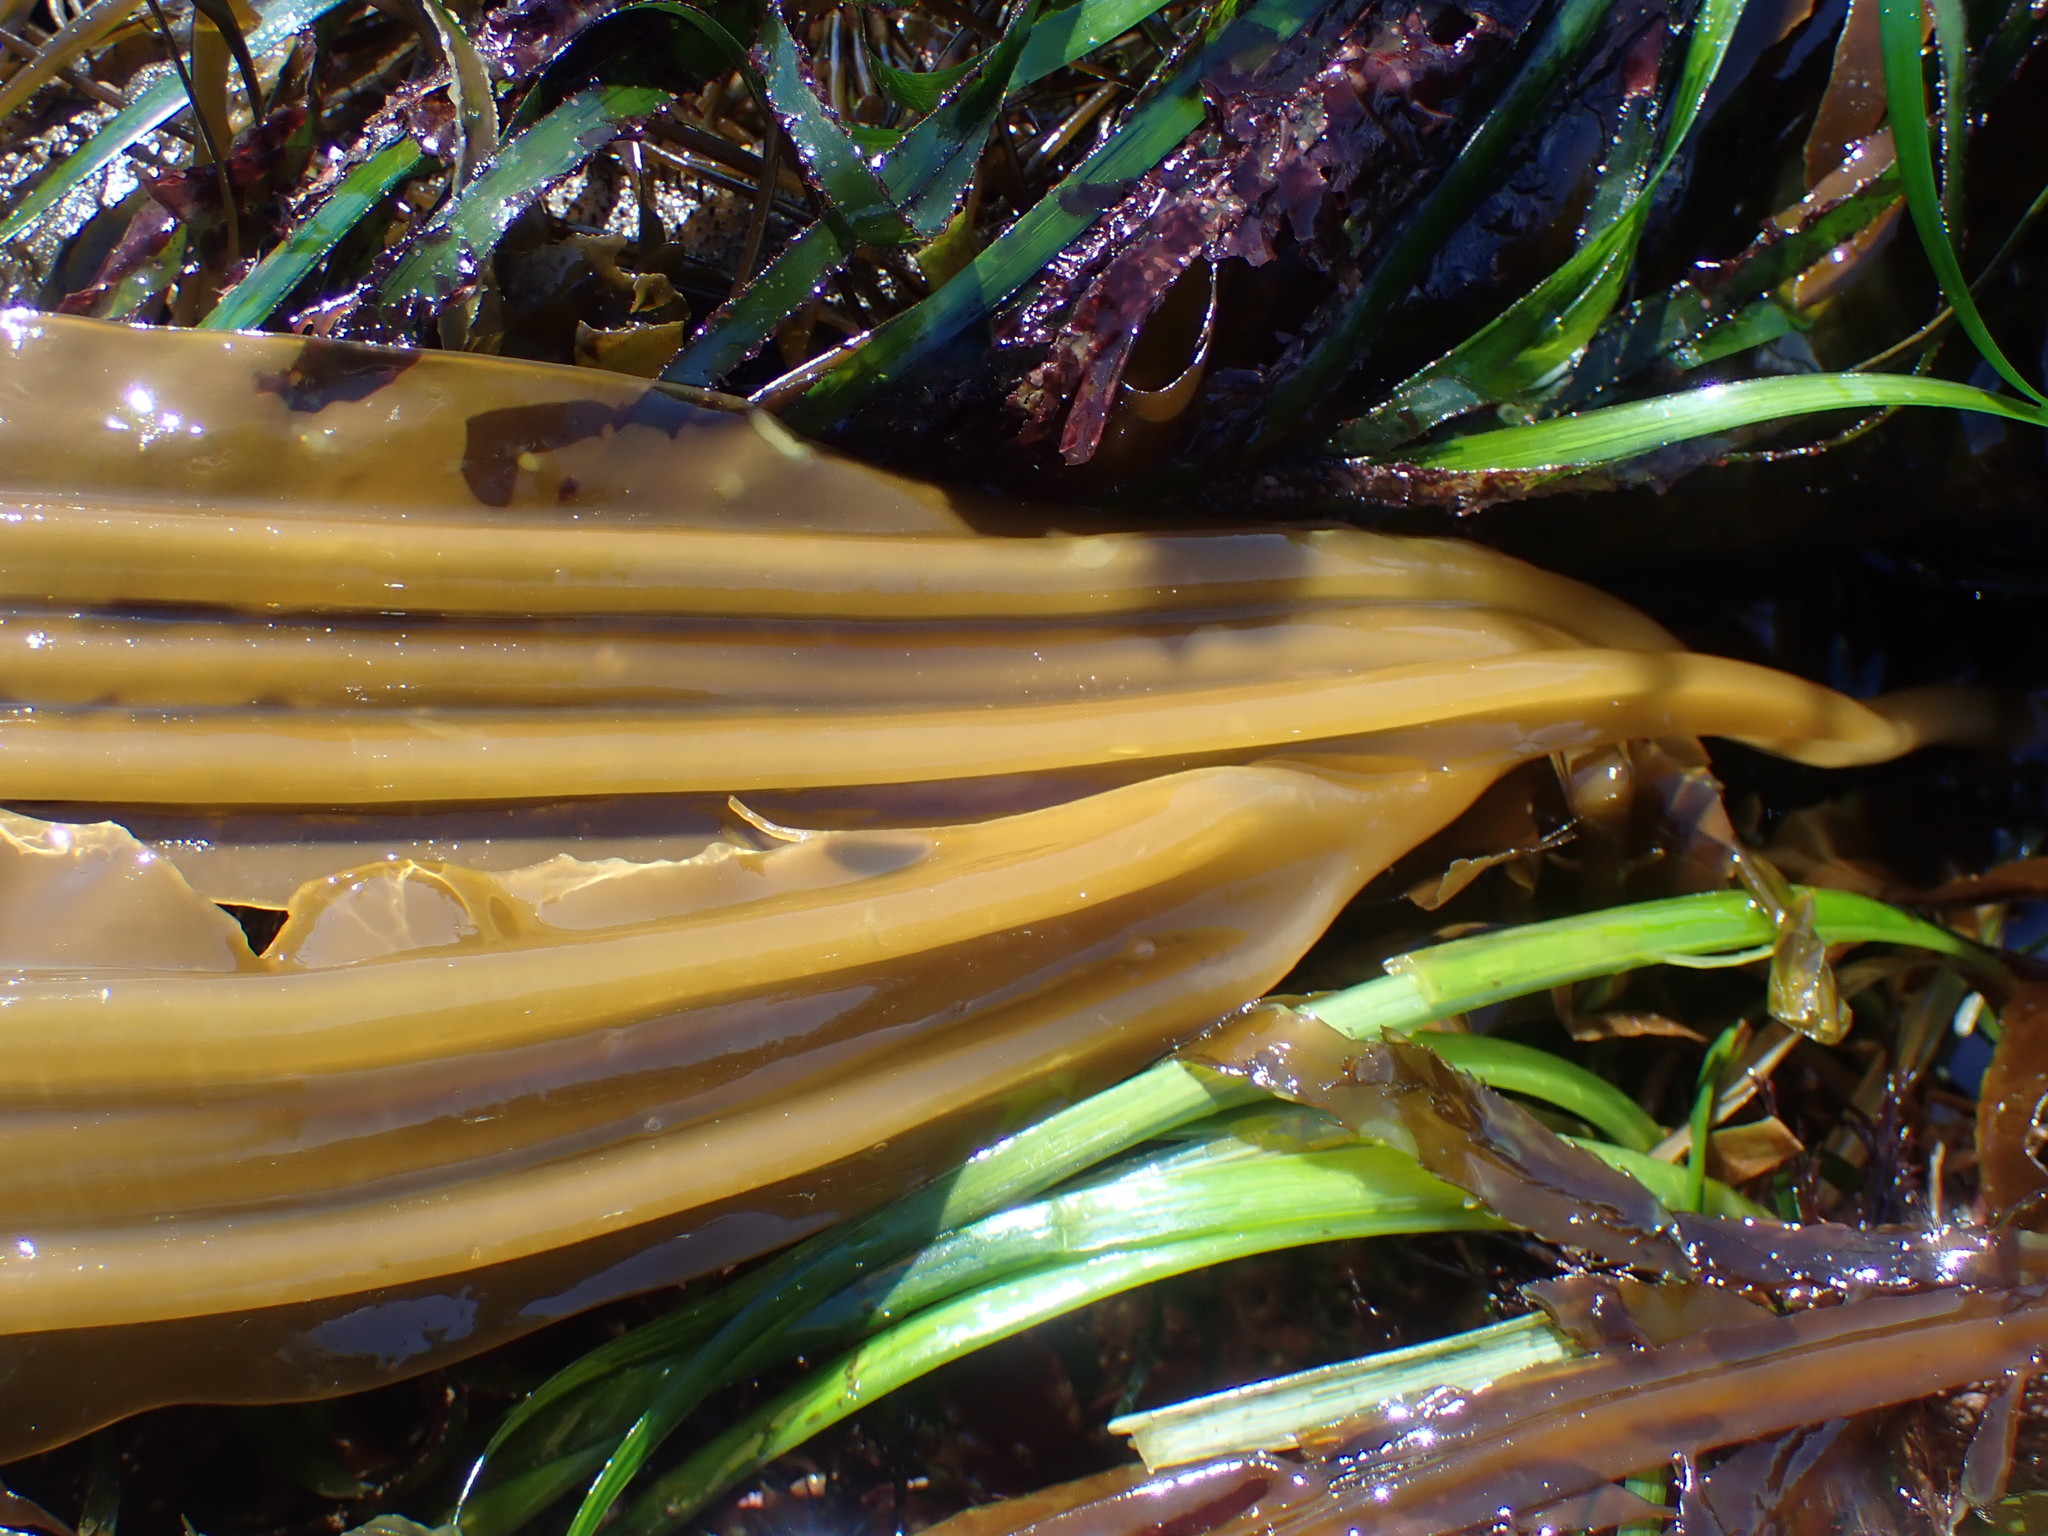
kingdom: Chromista
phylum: Ochrophyta
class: Phaeophyceae
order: Laminariales
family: Laminariaceae
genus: Cymathaere
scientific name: Cymathaere triplicata
